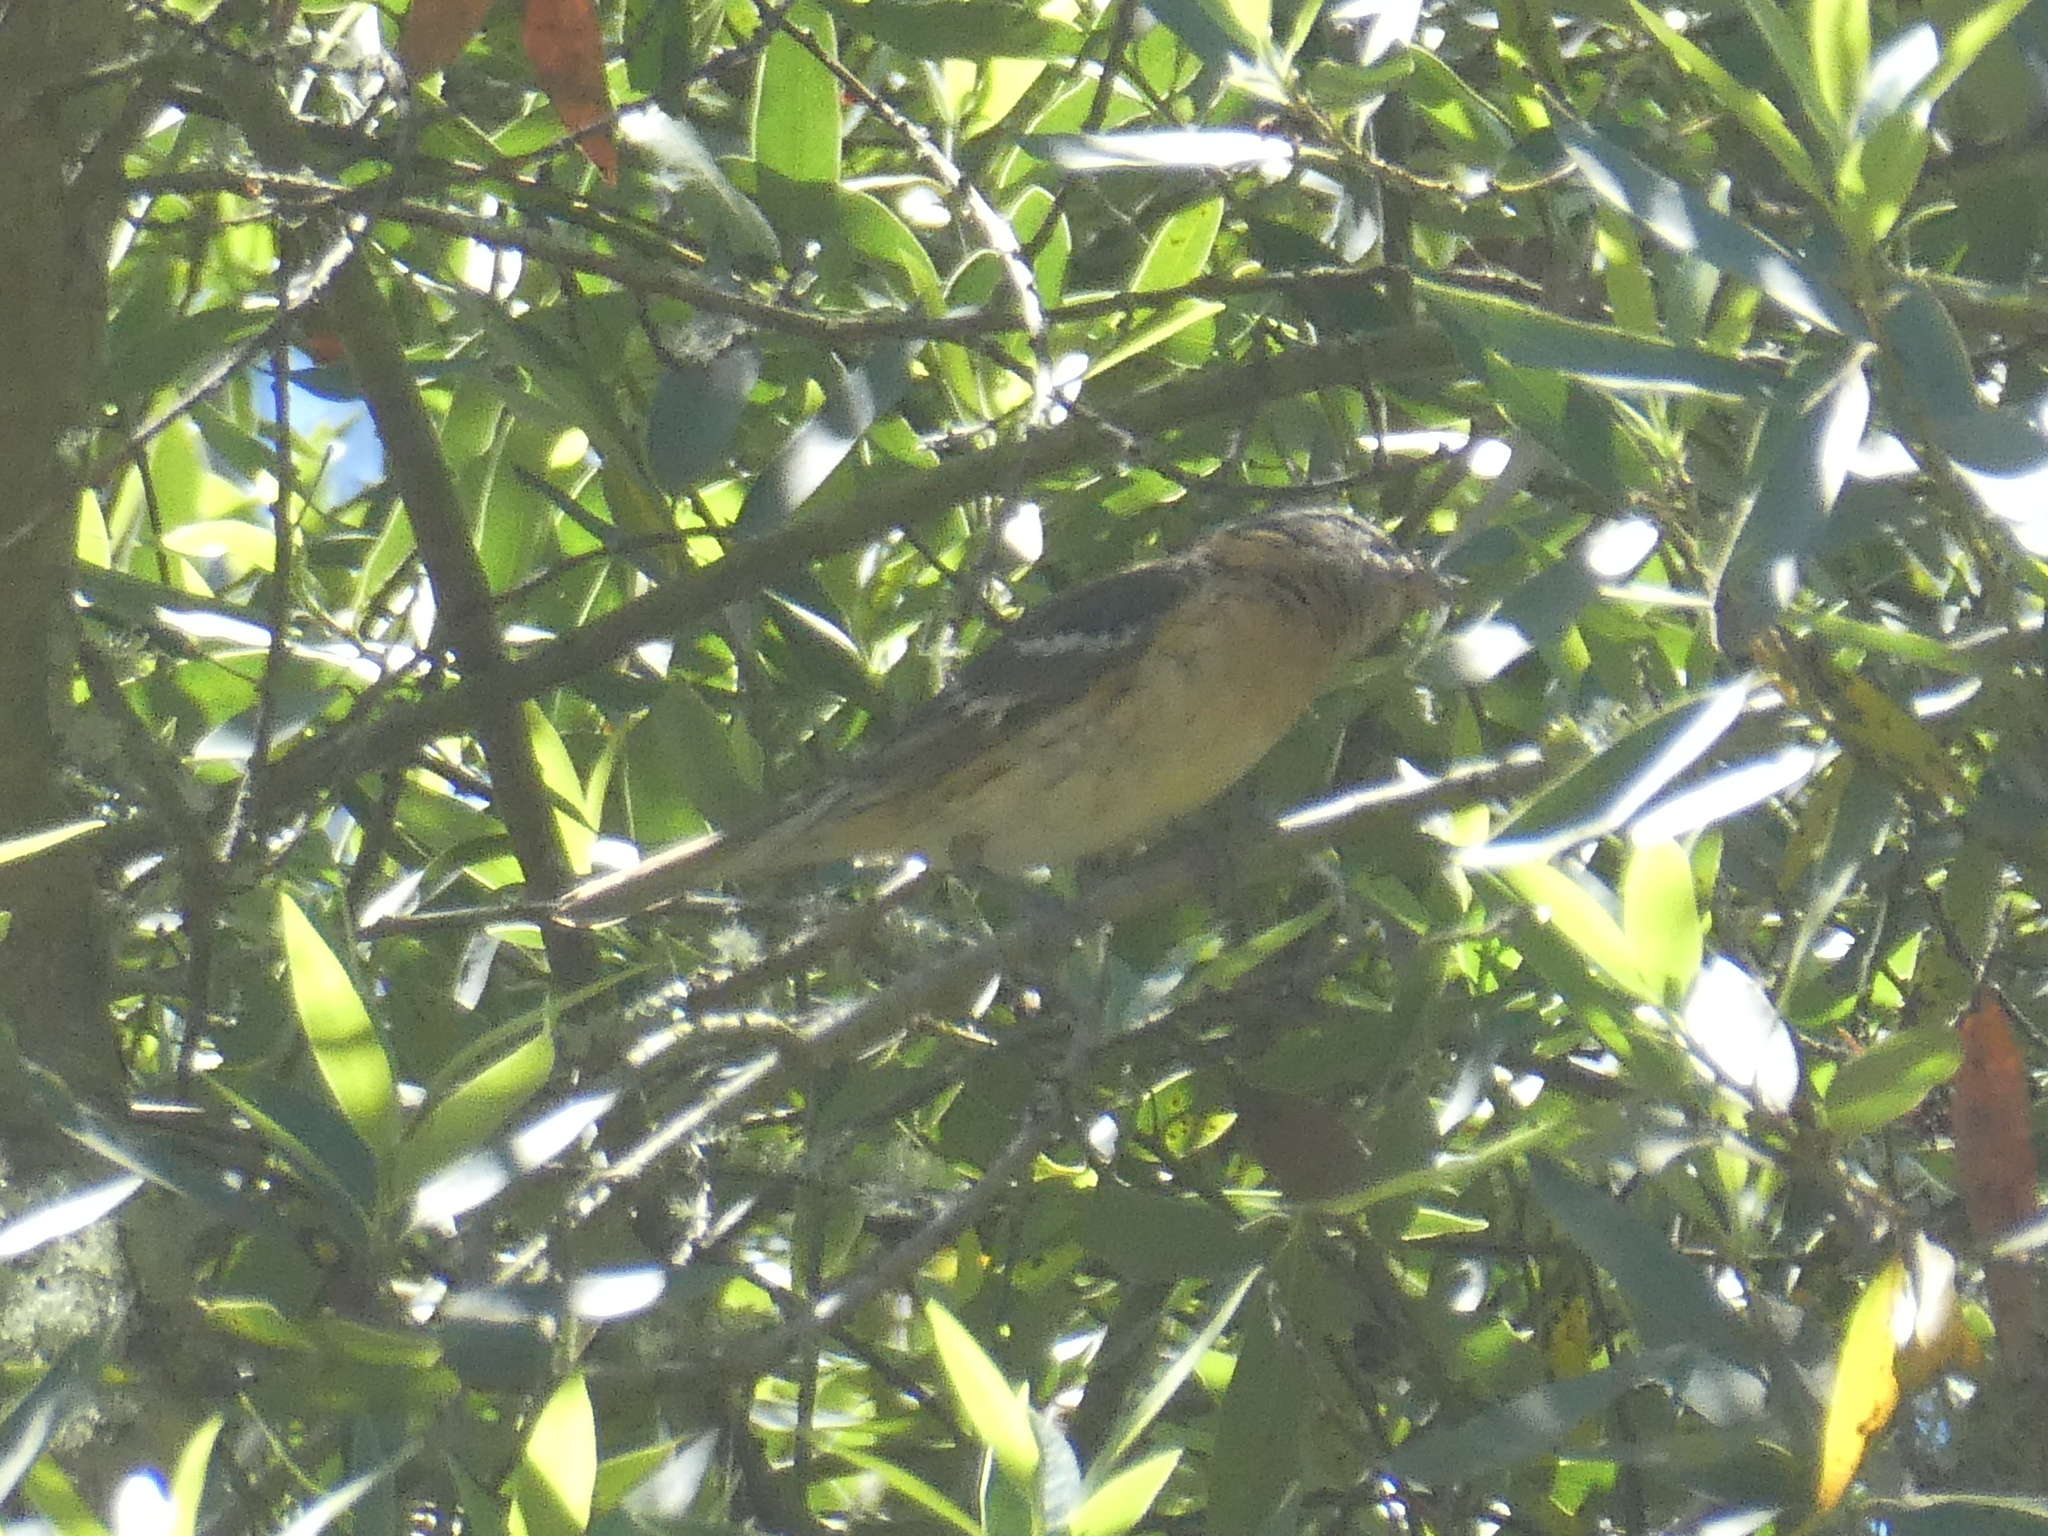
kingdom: Animalia
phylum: Chordata
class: Aves
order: Passeriformes
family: Cardinalidae
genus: Pheucticus
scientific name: Pheucticus melanocephalus
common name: Black-headed grosbeak
